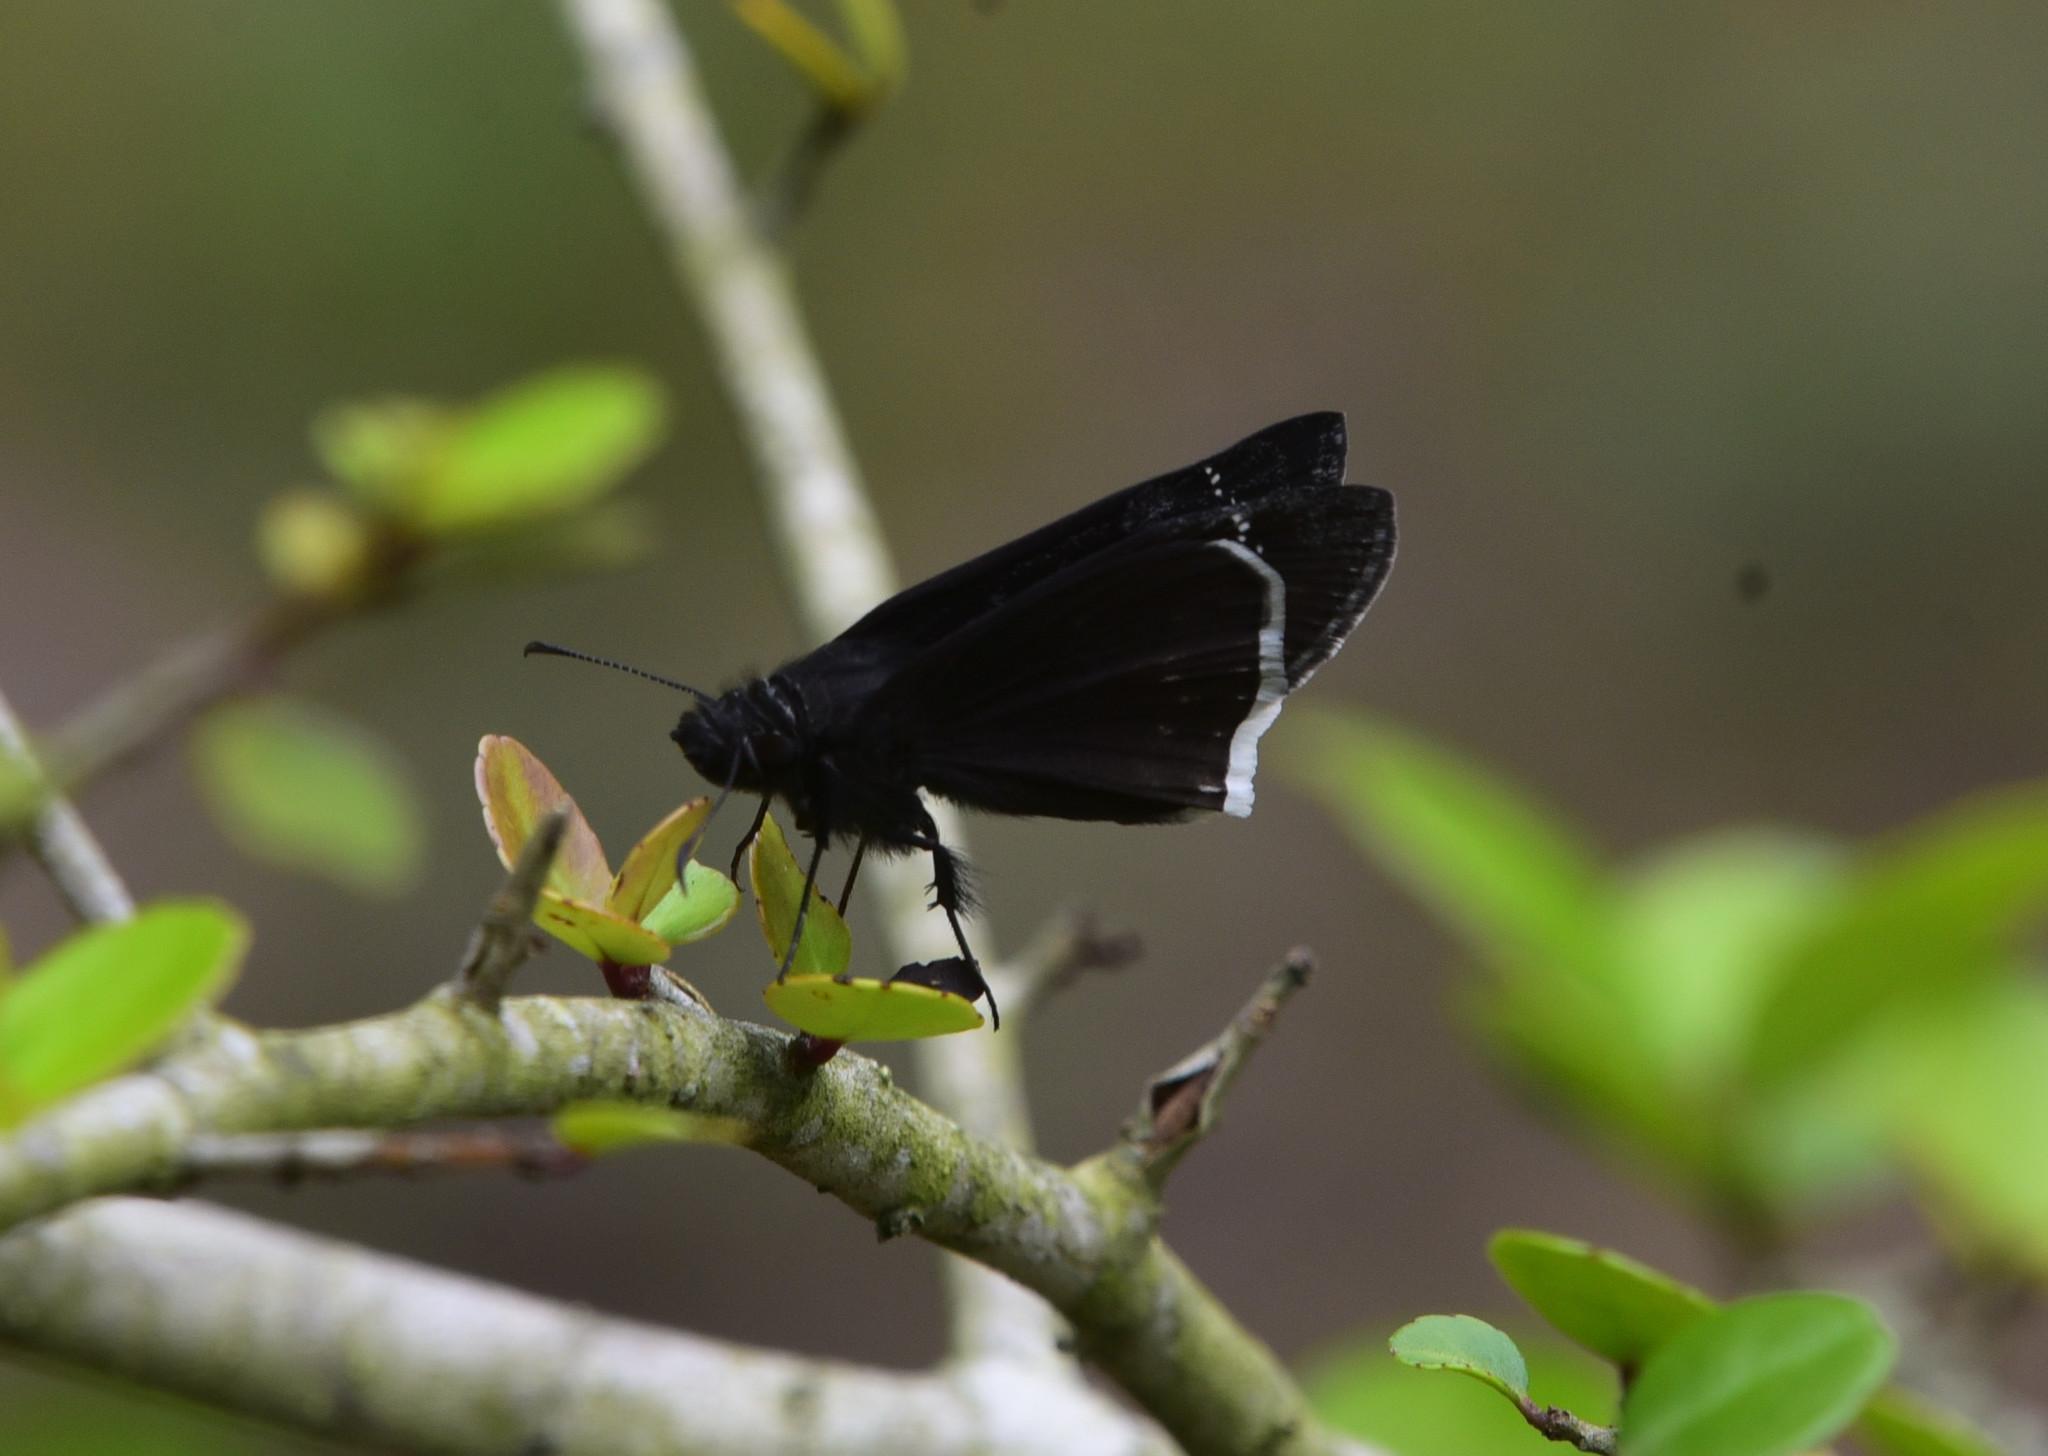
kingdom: Animalia
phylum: Arthropoda
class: Insecta
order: Lepidoptera
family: Hesperiidae
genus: Erynnis
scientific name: Erynnis funeralis
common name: Funereal duskywing
